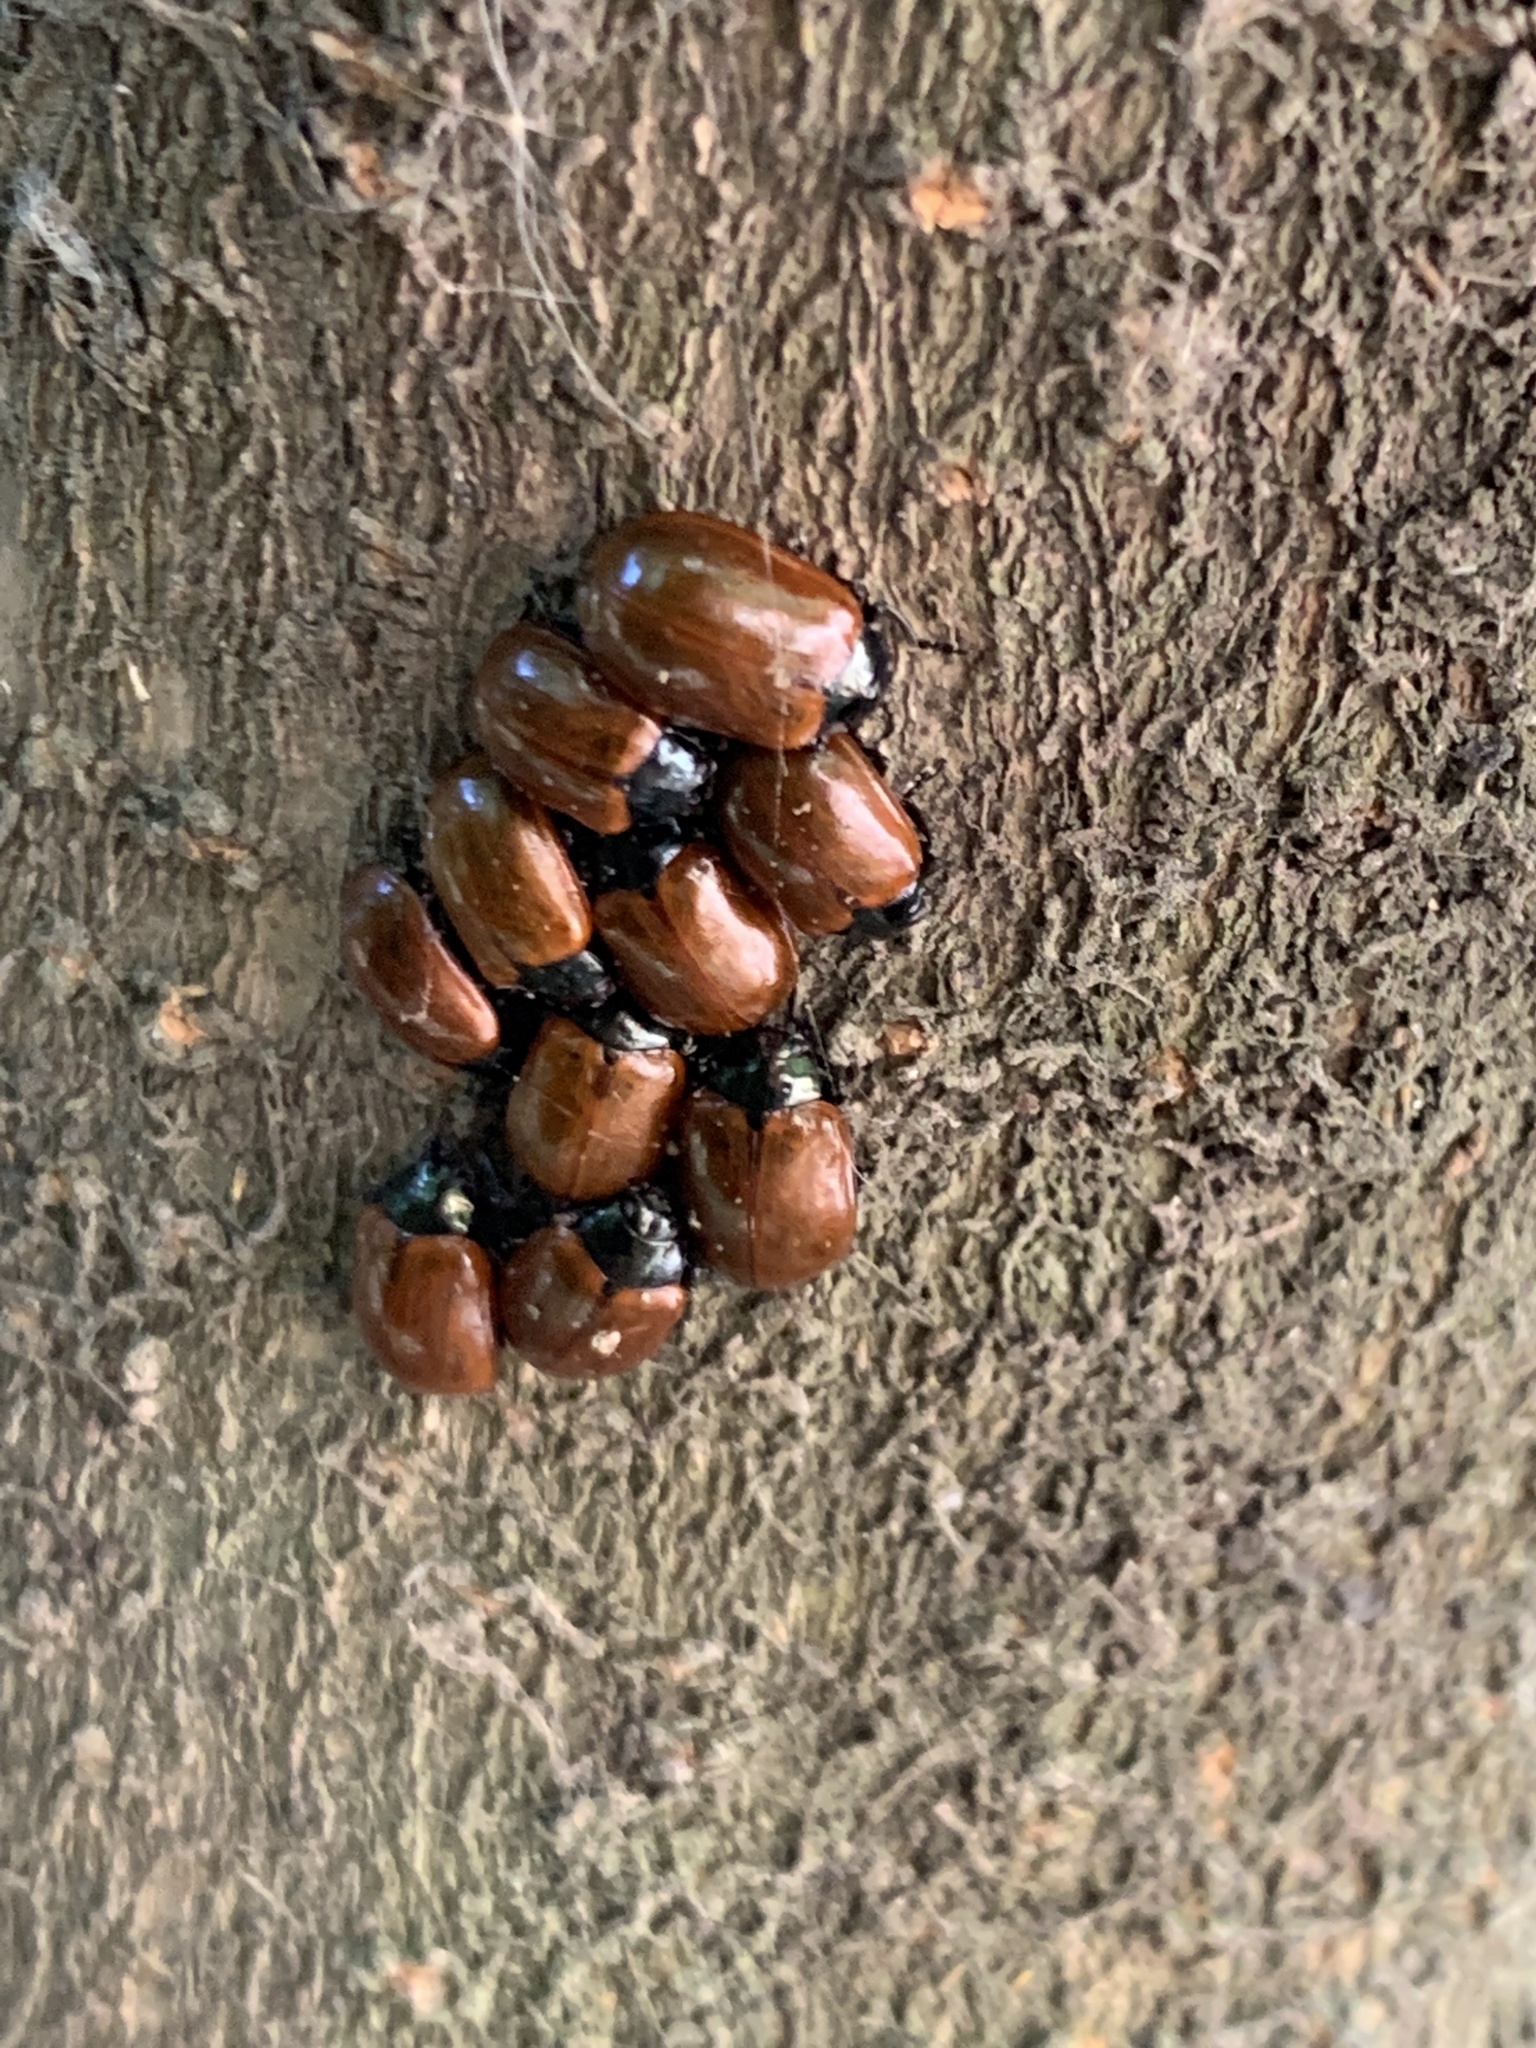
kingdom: Animalia
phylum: Arthropoda
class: Insecta
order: Coleoptera
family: Chrysomelidae
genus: Plagiodera
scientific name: Plagiodera
